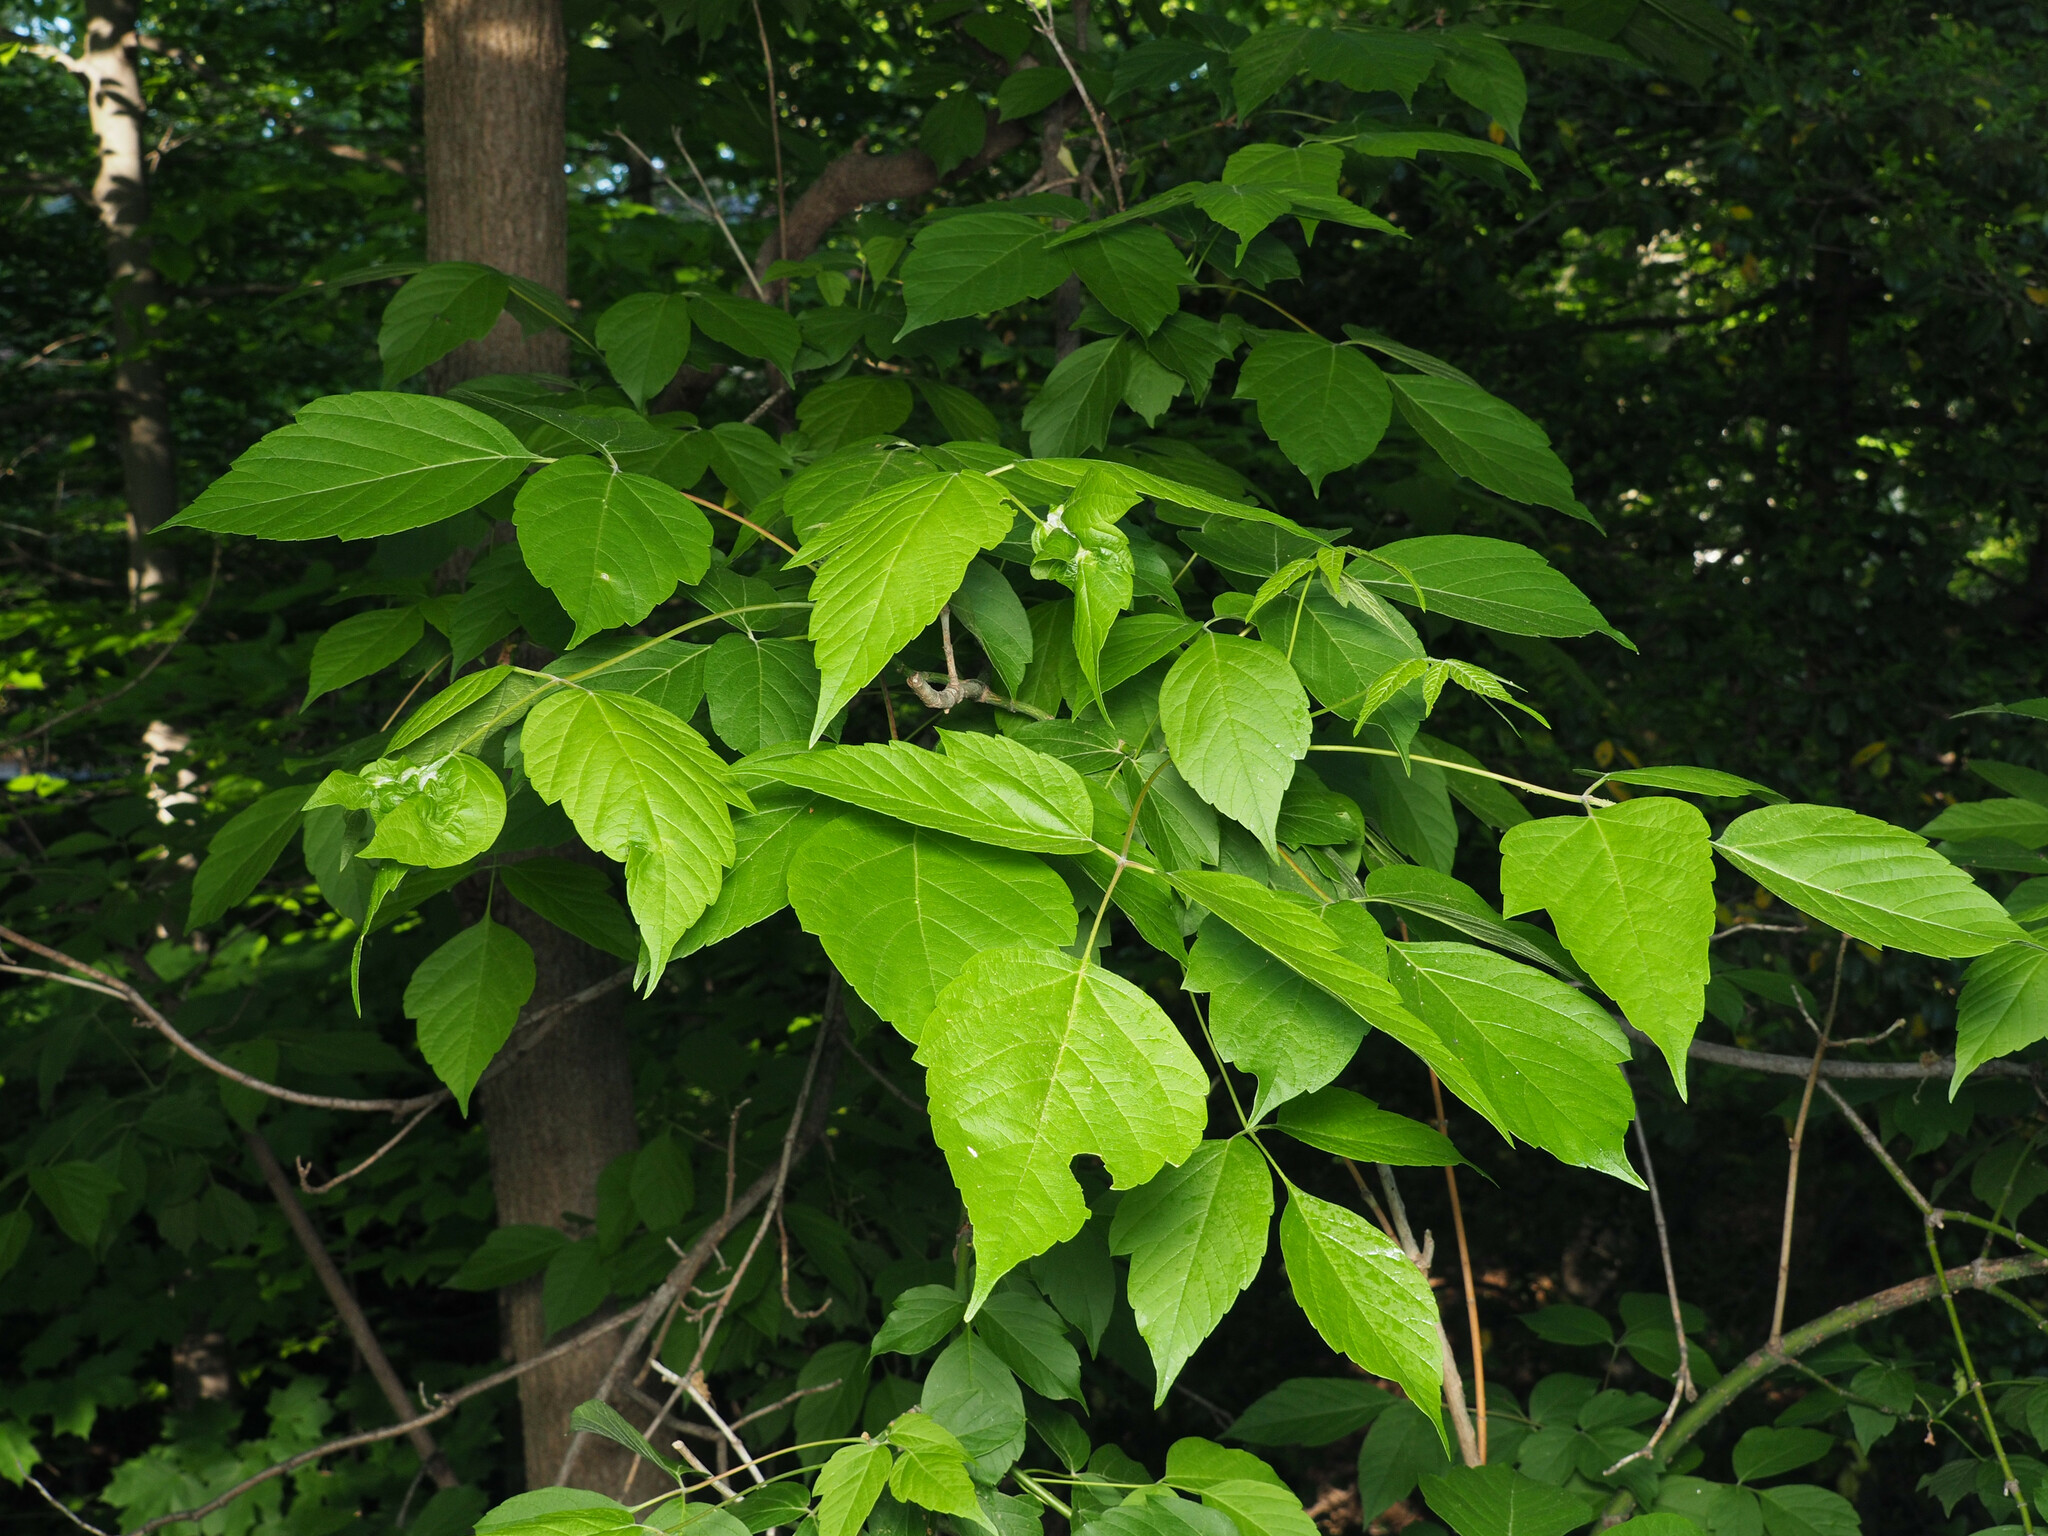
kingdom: Animalia
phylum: Arthropoda
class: Insecta
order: Diptera
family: Cecidomyiidae
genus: Contarinia
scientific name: Contarinia negundinis
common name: Boxelder budgall midge
